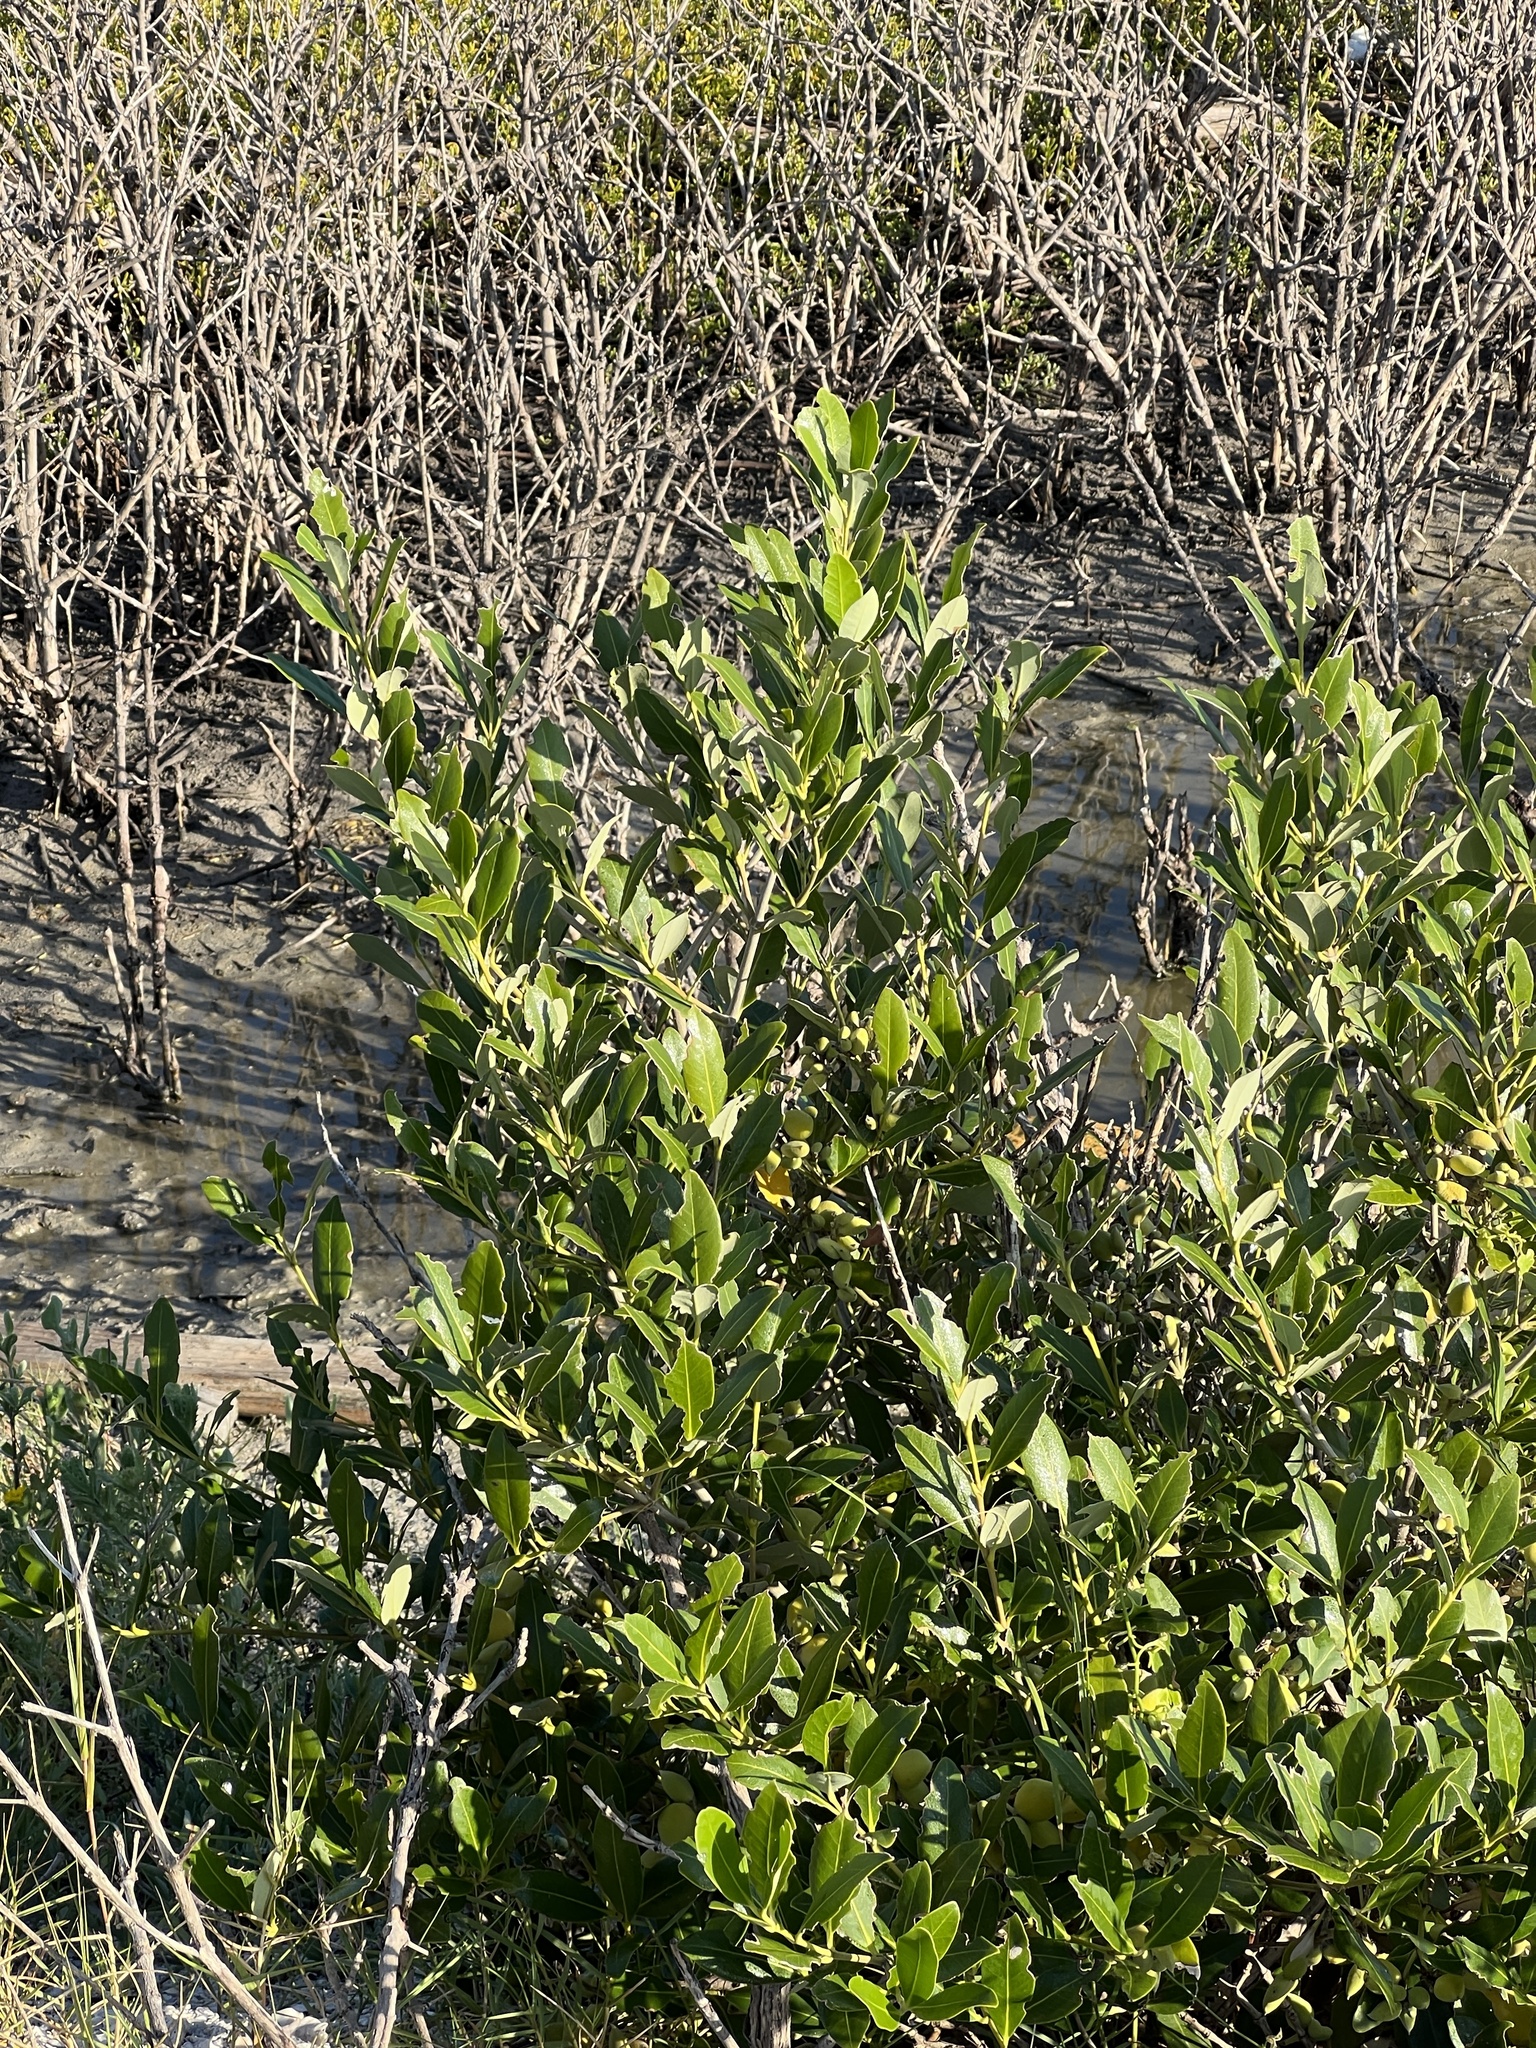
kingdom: Plantae
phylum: Tracheophyta
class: Magnoliopsida
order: Lamiales
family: Acanthaceae
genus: Avicennia
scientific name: Avicennia germinans
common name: Black mangrove
